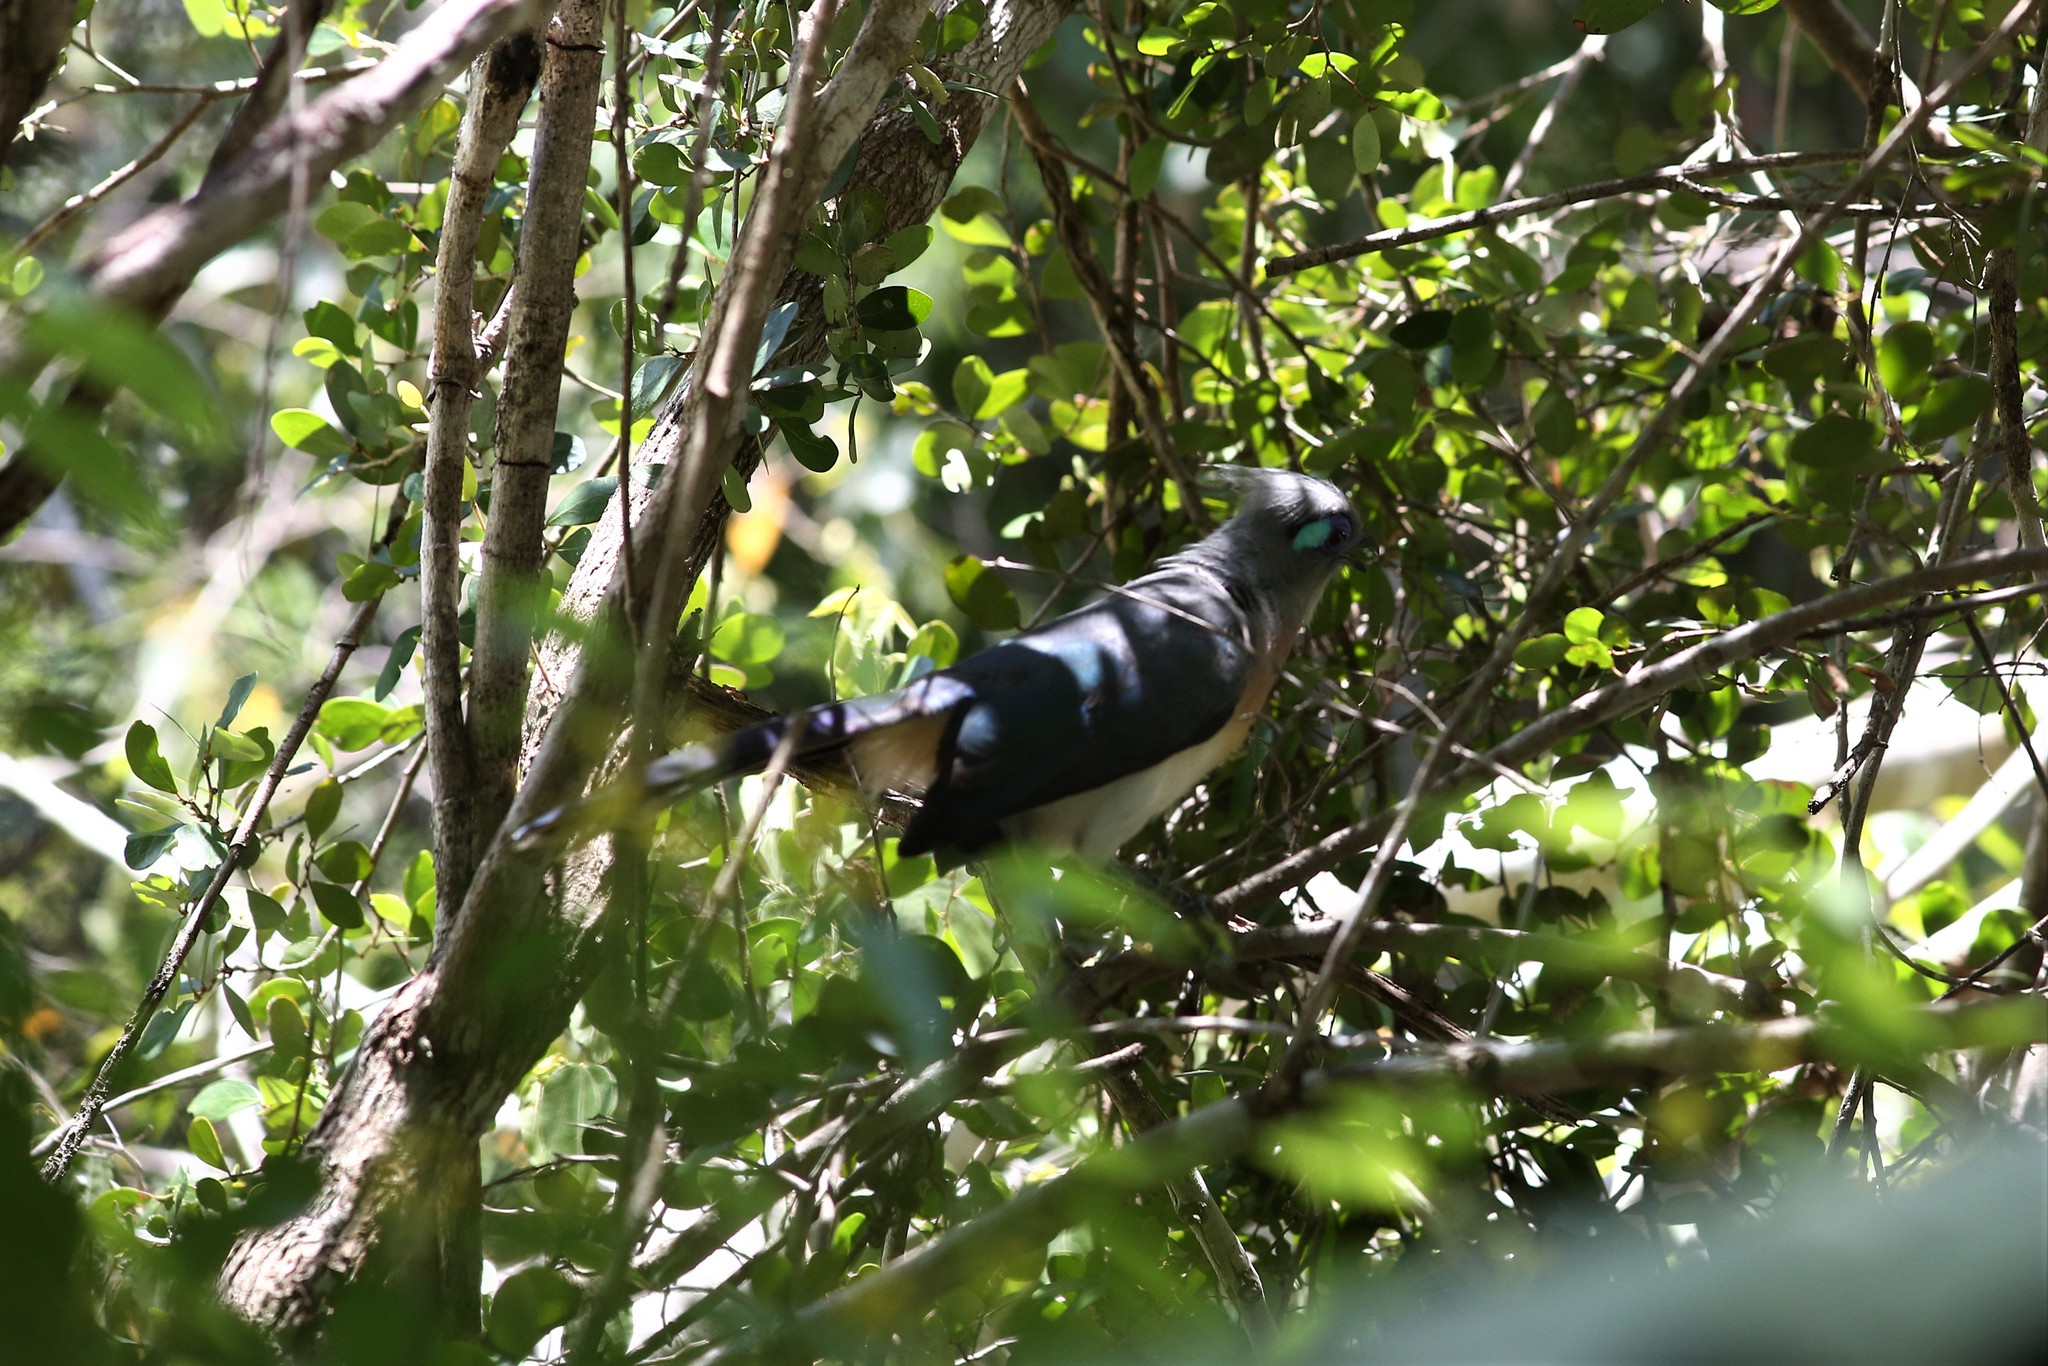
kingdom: Animalia
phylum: Chordata
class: Aves
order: Cuculiformes
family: Cuculidae
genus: Coua
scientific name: Coua cristata
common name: Crested coua
